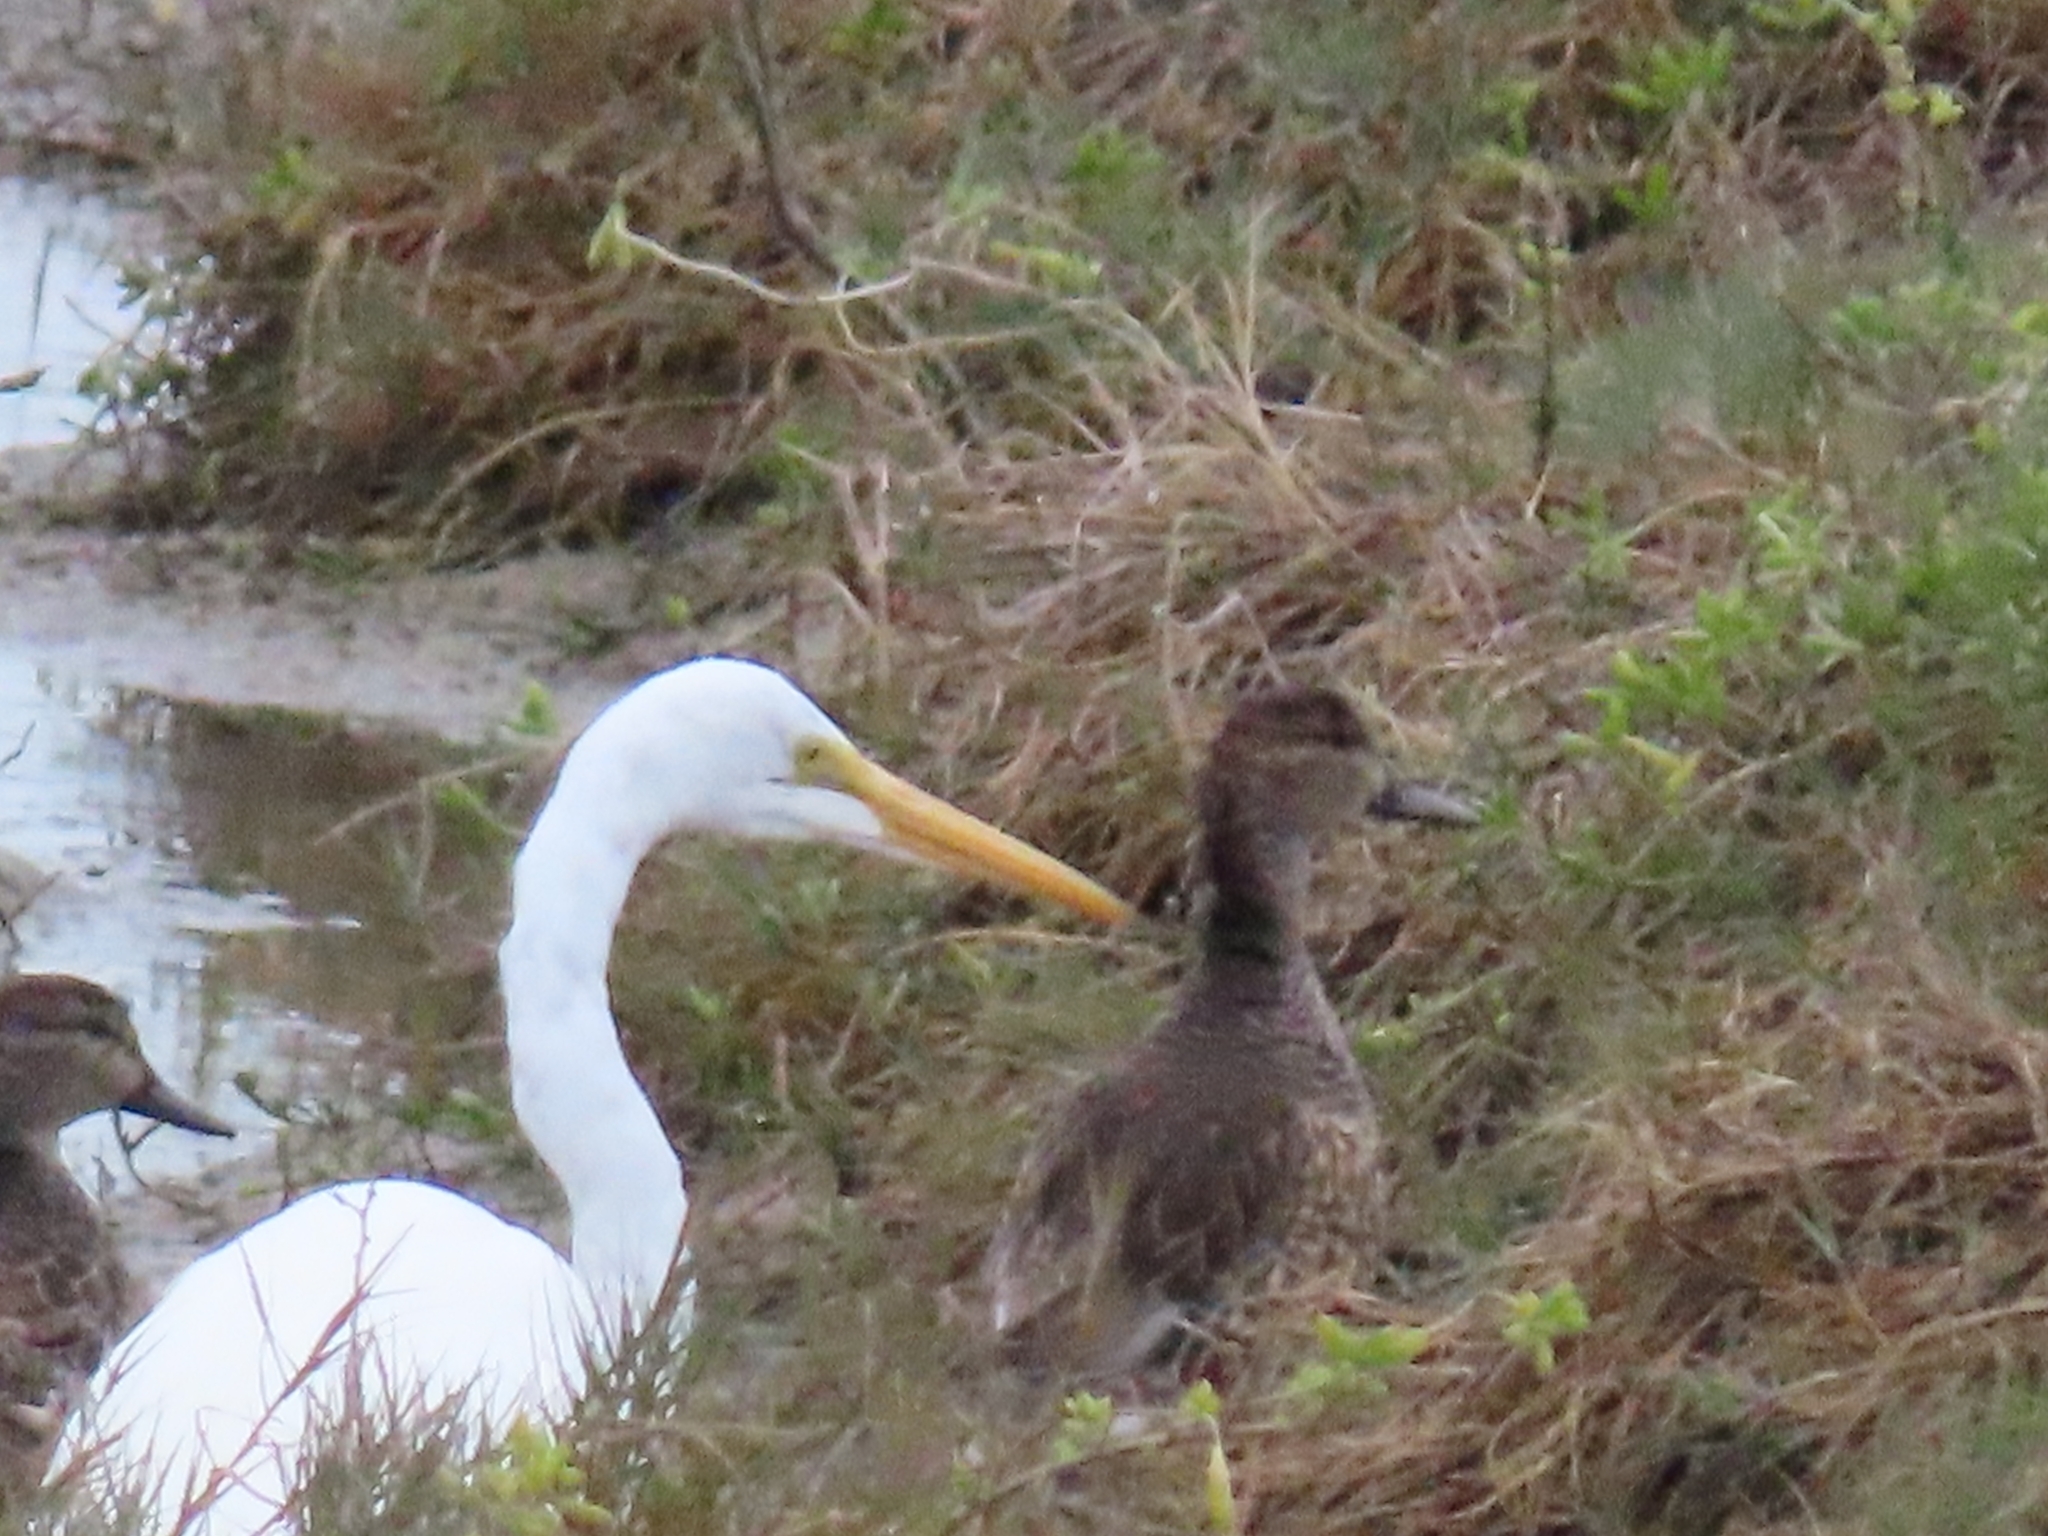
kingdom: Animalia
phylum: Chordata
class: Aves
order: Pelecaniformes
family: Ardeidae
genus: Ardea
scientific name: Ardea alba
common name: Great egret
